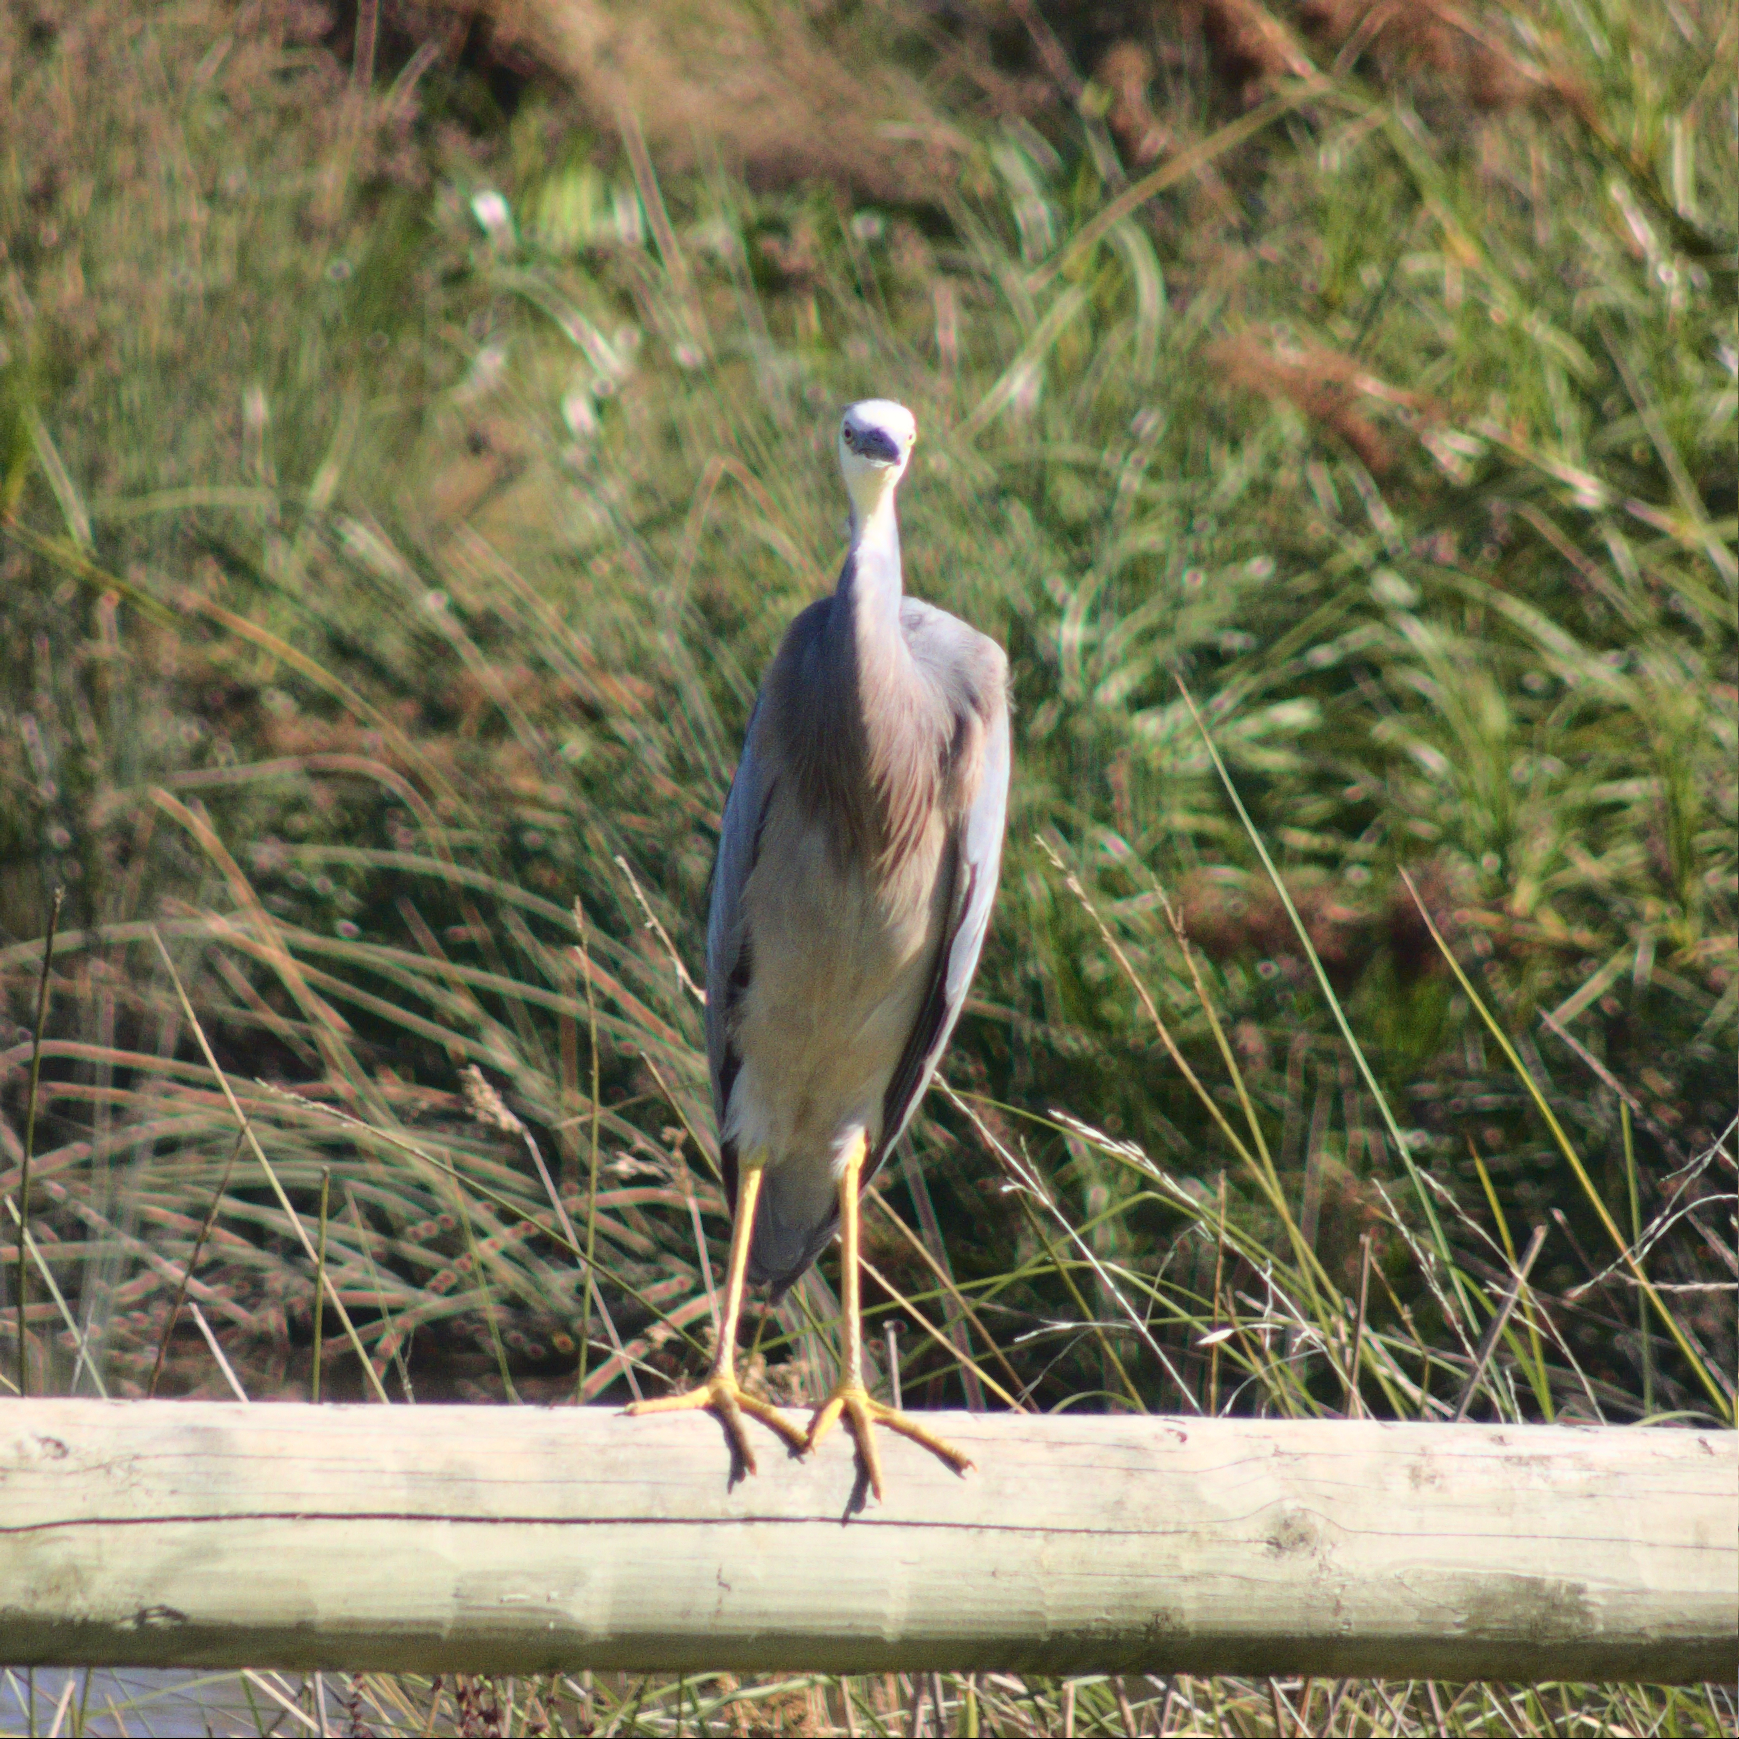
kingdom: Animalia
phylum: Chordata
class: Aves
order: Pelecaniformes
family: Ardeidae
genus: Egretta
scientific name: Egretta novaehollandiae
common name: White-faced heron
